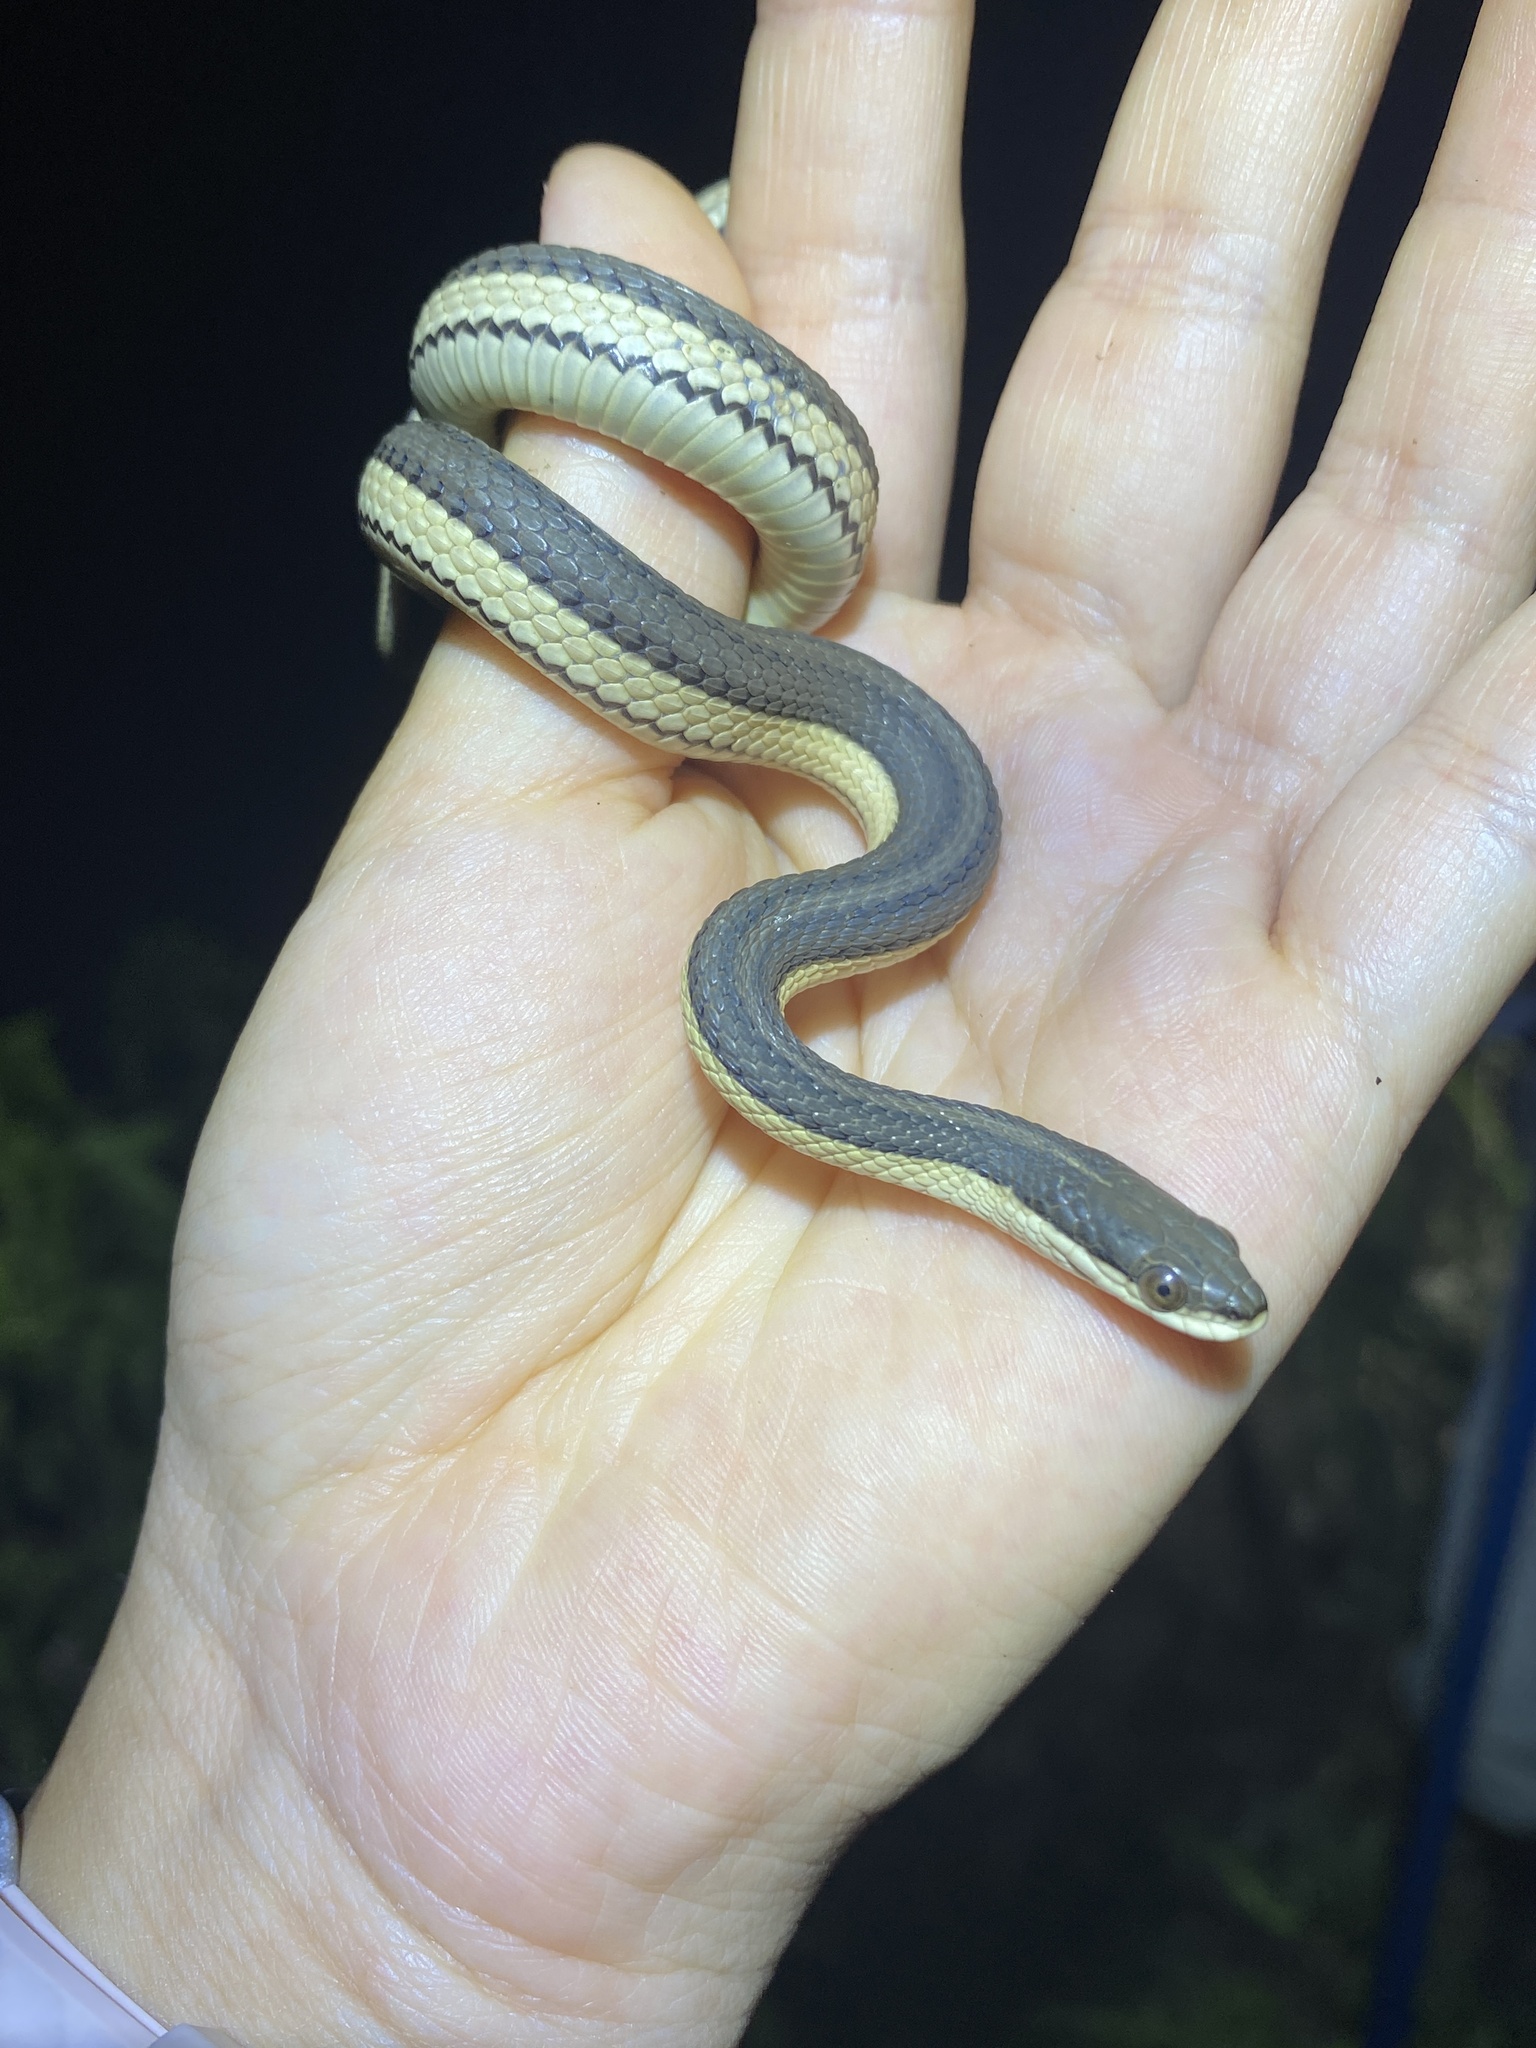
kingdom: Animalia
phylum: Chordata
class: Squamata
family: Colubridae
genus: Regina
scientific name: Regina grahamii
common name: Graham's crayfish snake
